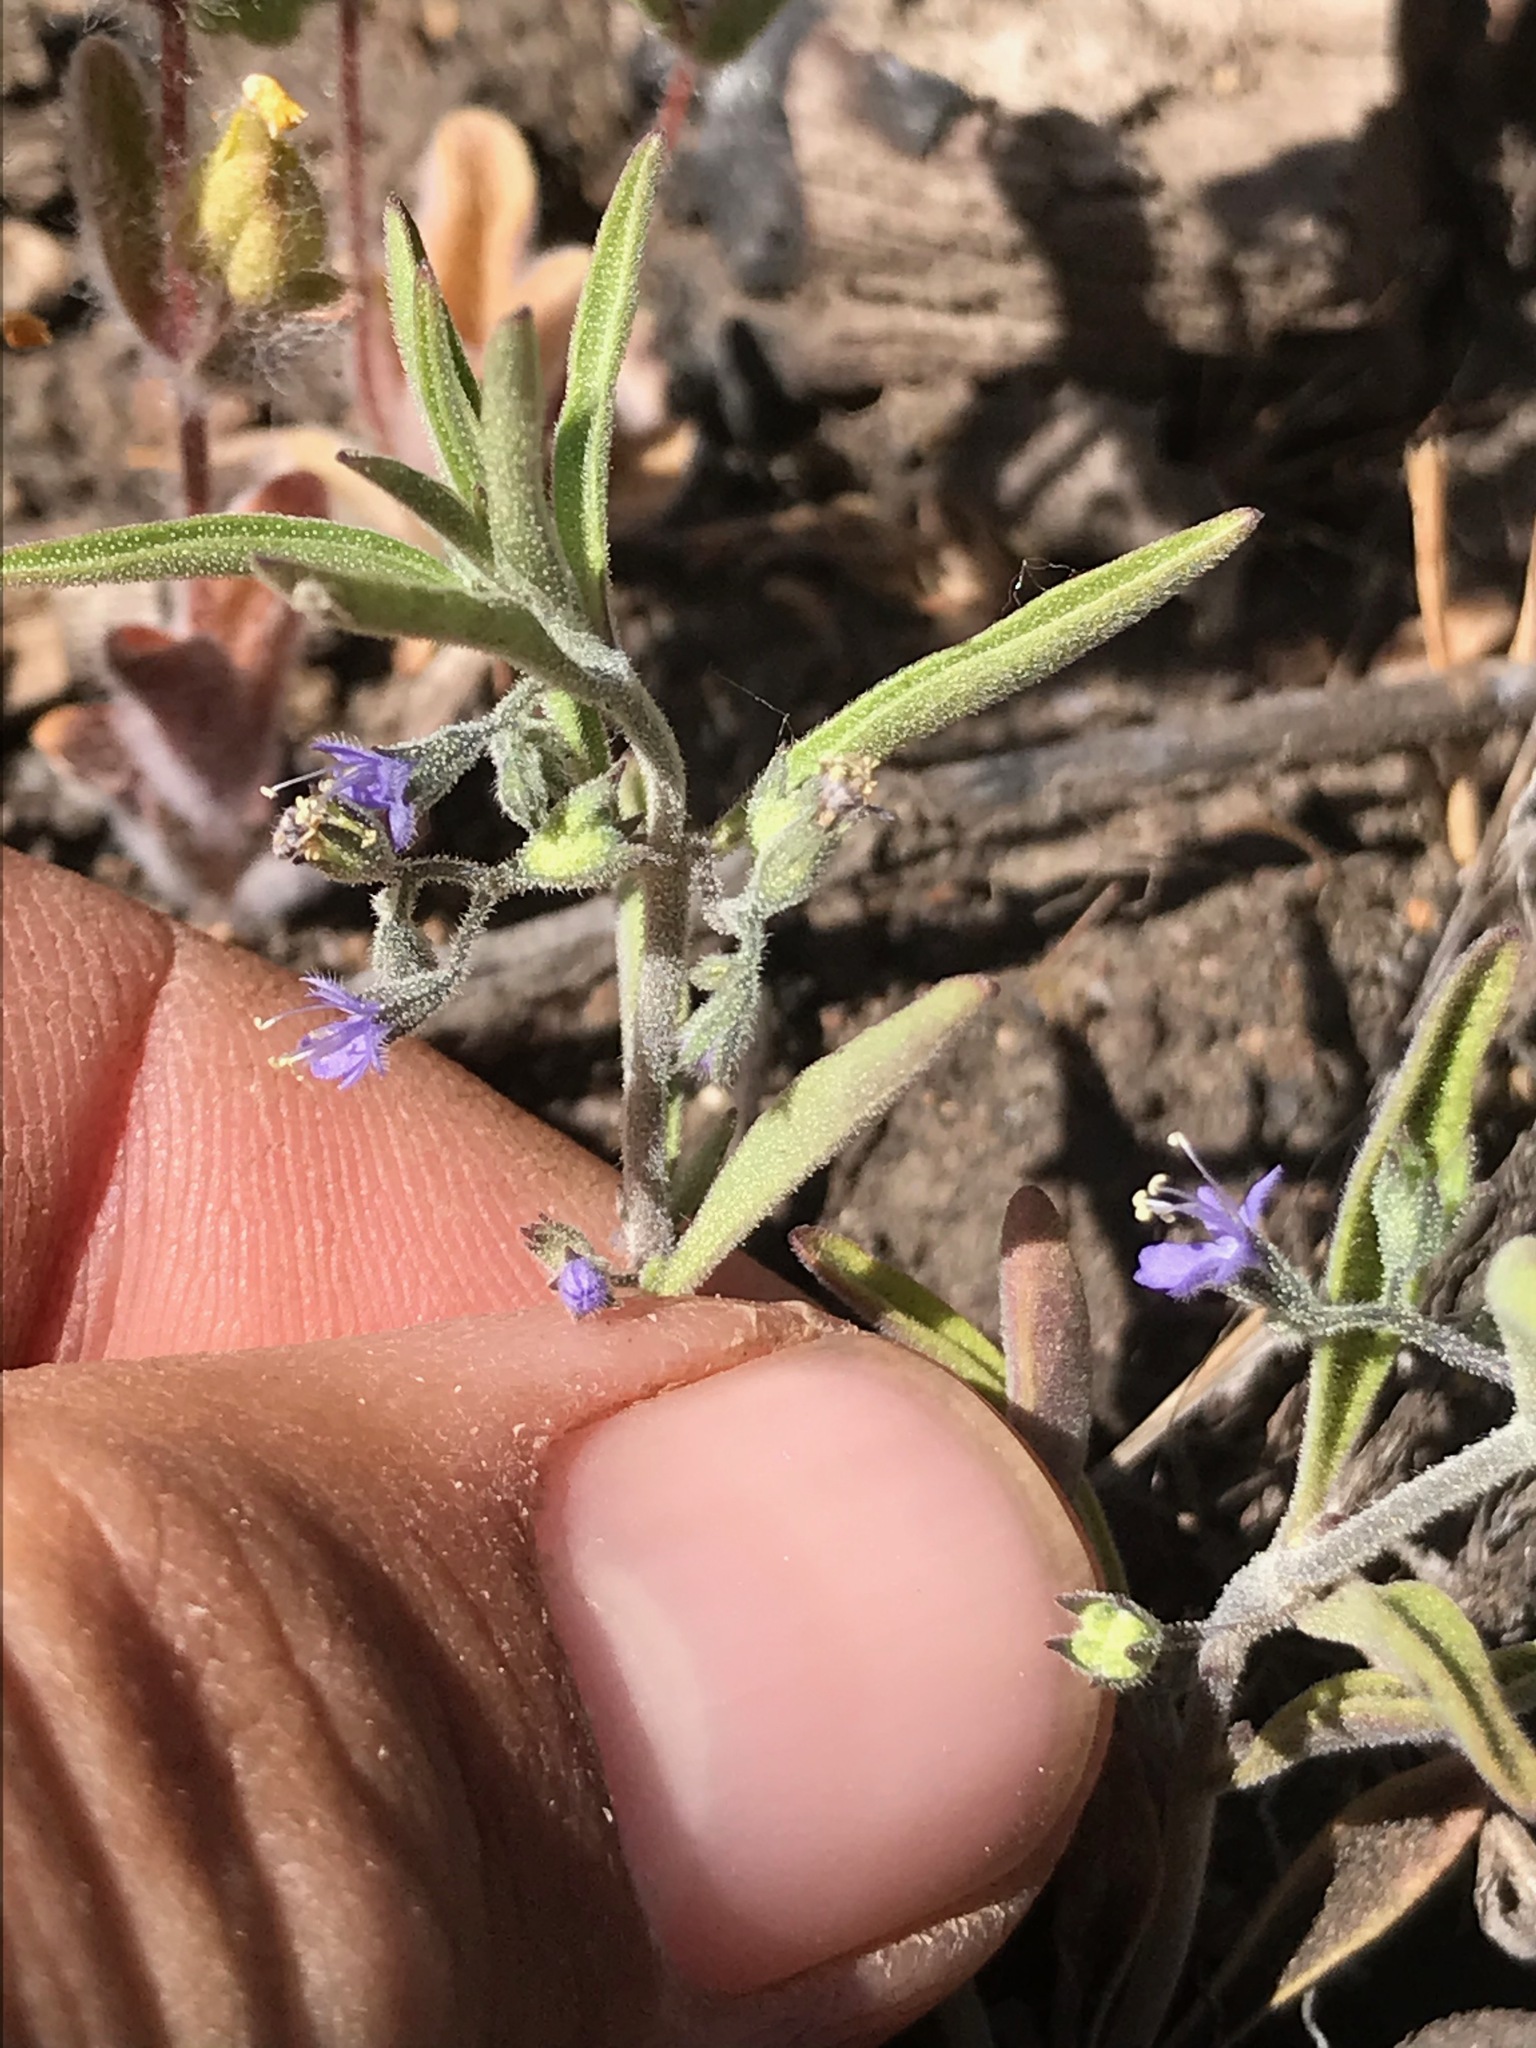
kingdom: Plantae
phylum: Tracheophyta
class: Magnoliopsida
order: Lamiales
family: Lamiaceae
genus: Trichostema
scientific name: Trichostema micranthum
